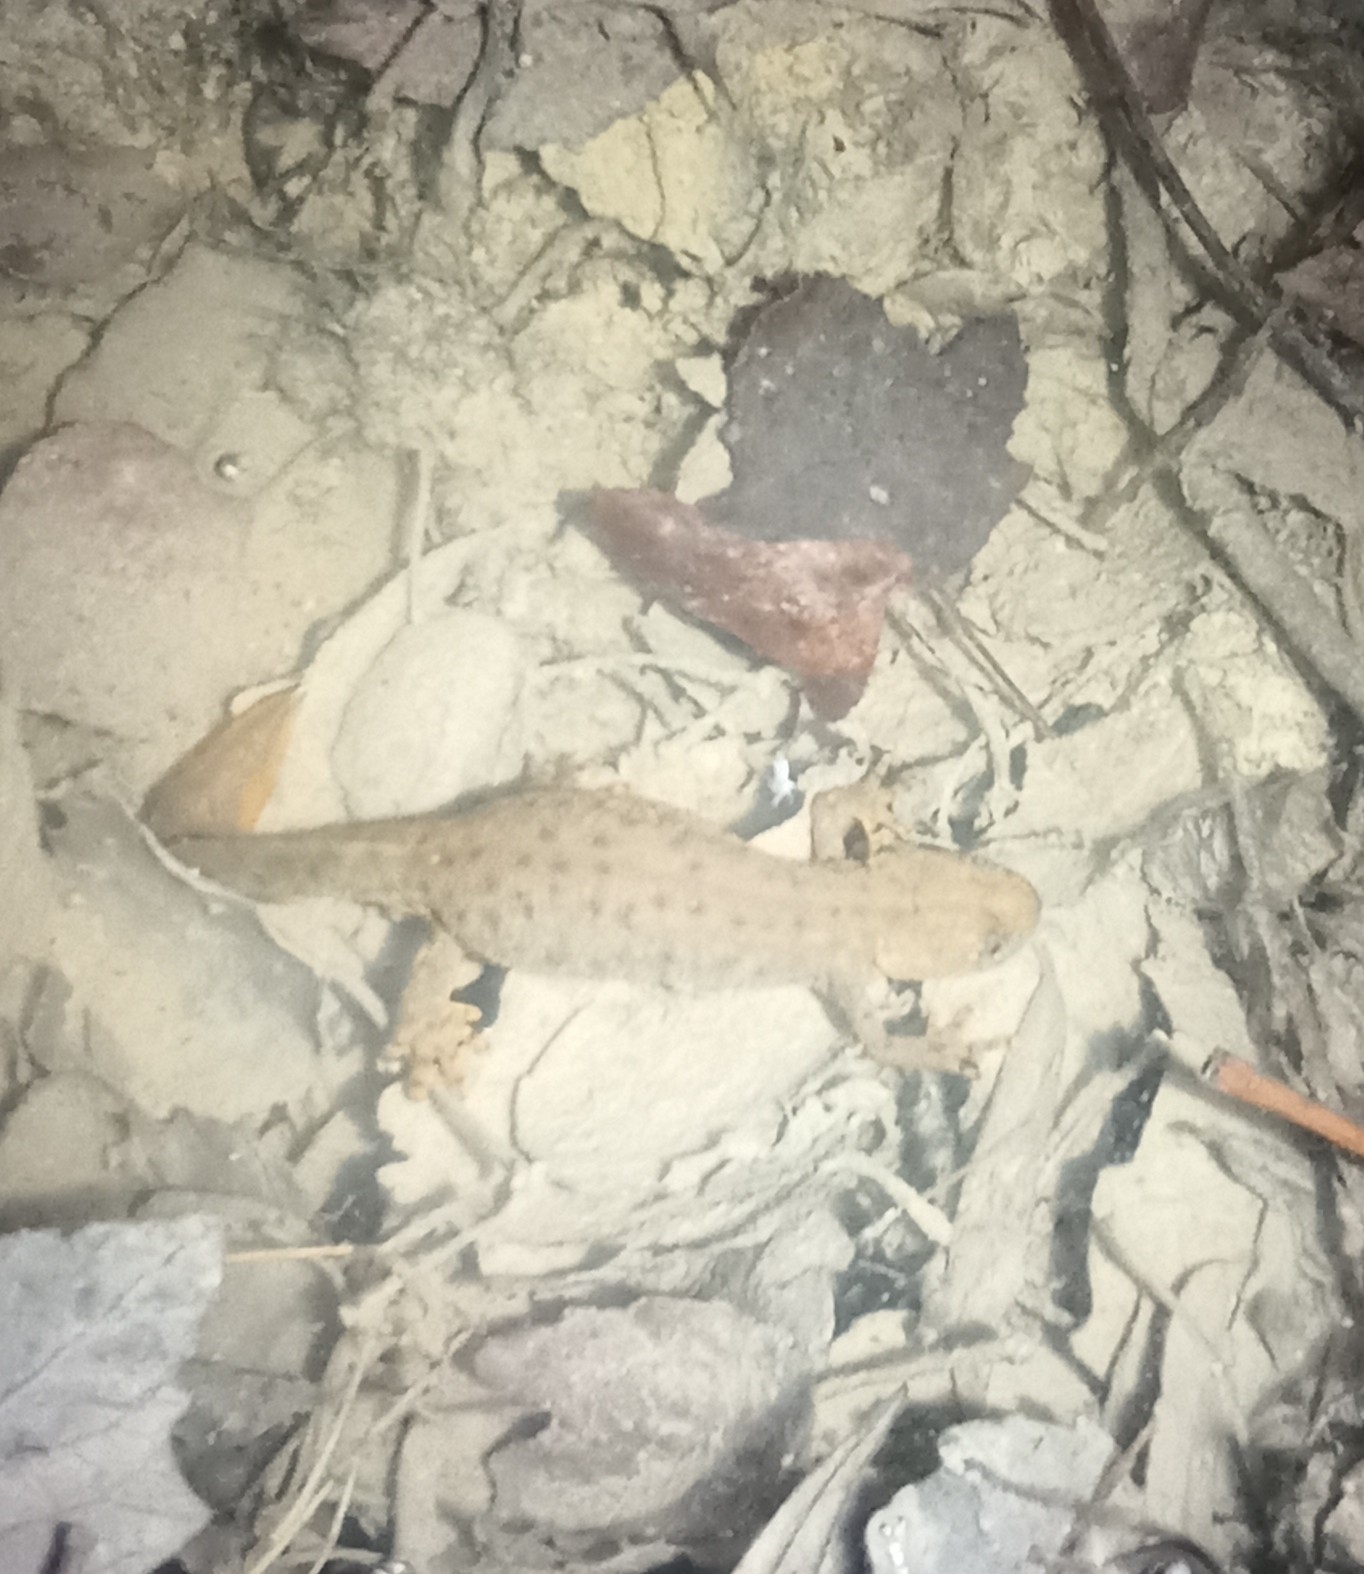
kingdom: Animalia
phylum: Chordata
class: Amphibia
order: Caudata
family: Salamandridae
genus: Triturus
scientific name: Triturus cristatus
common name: Crested newt
